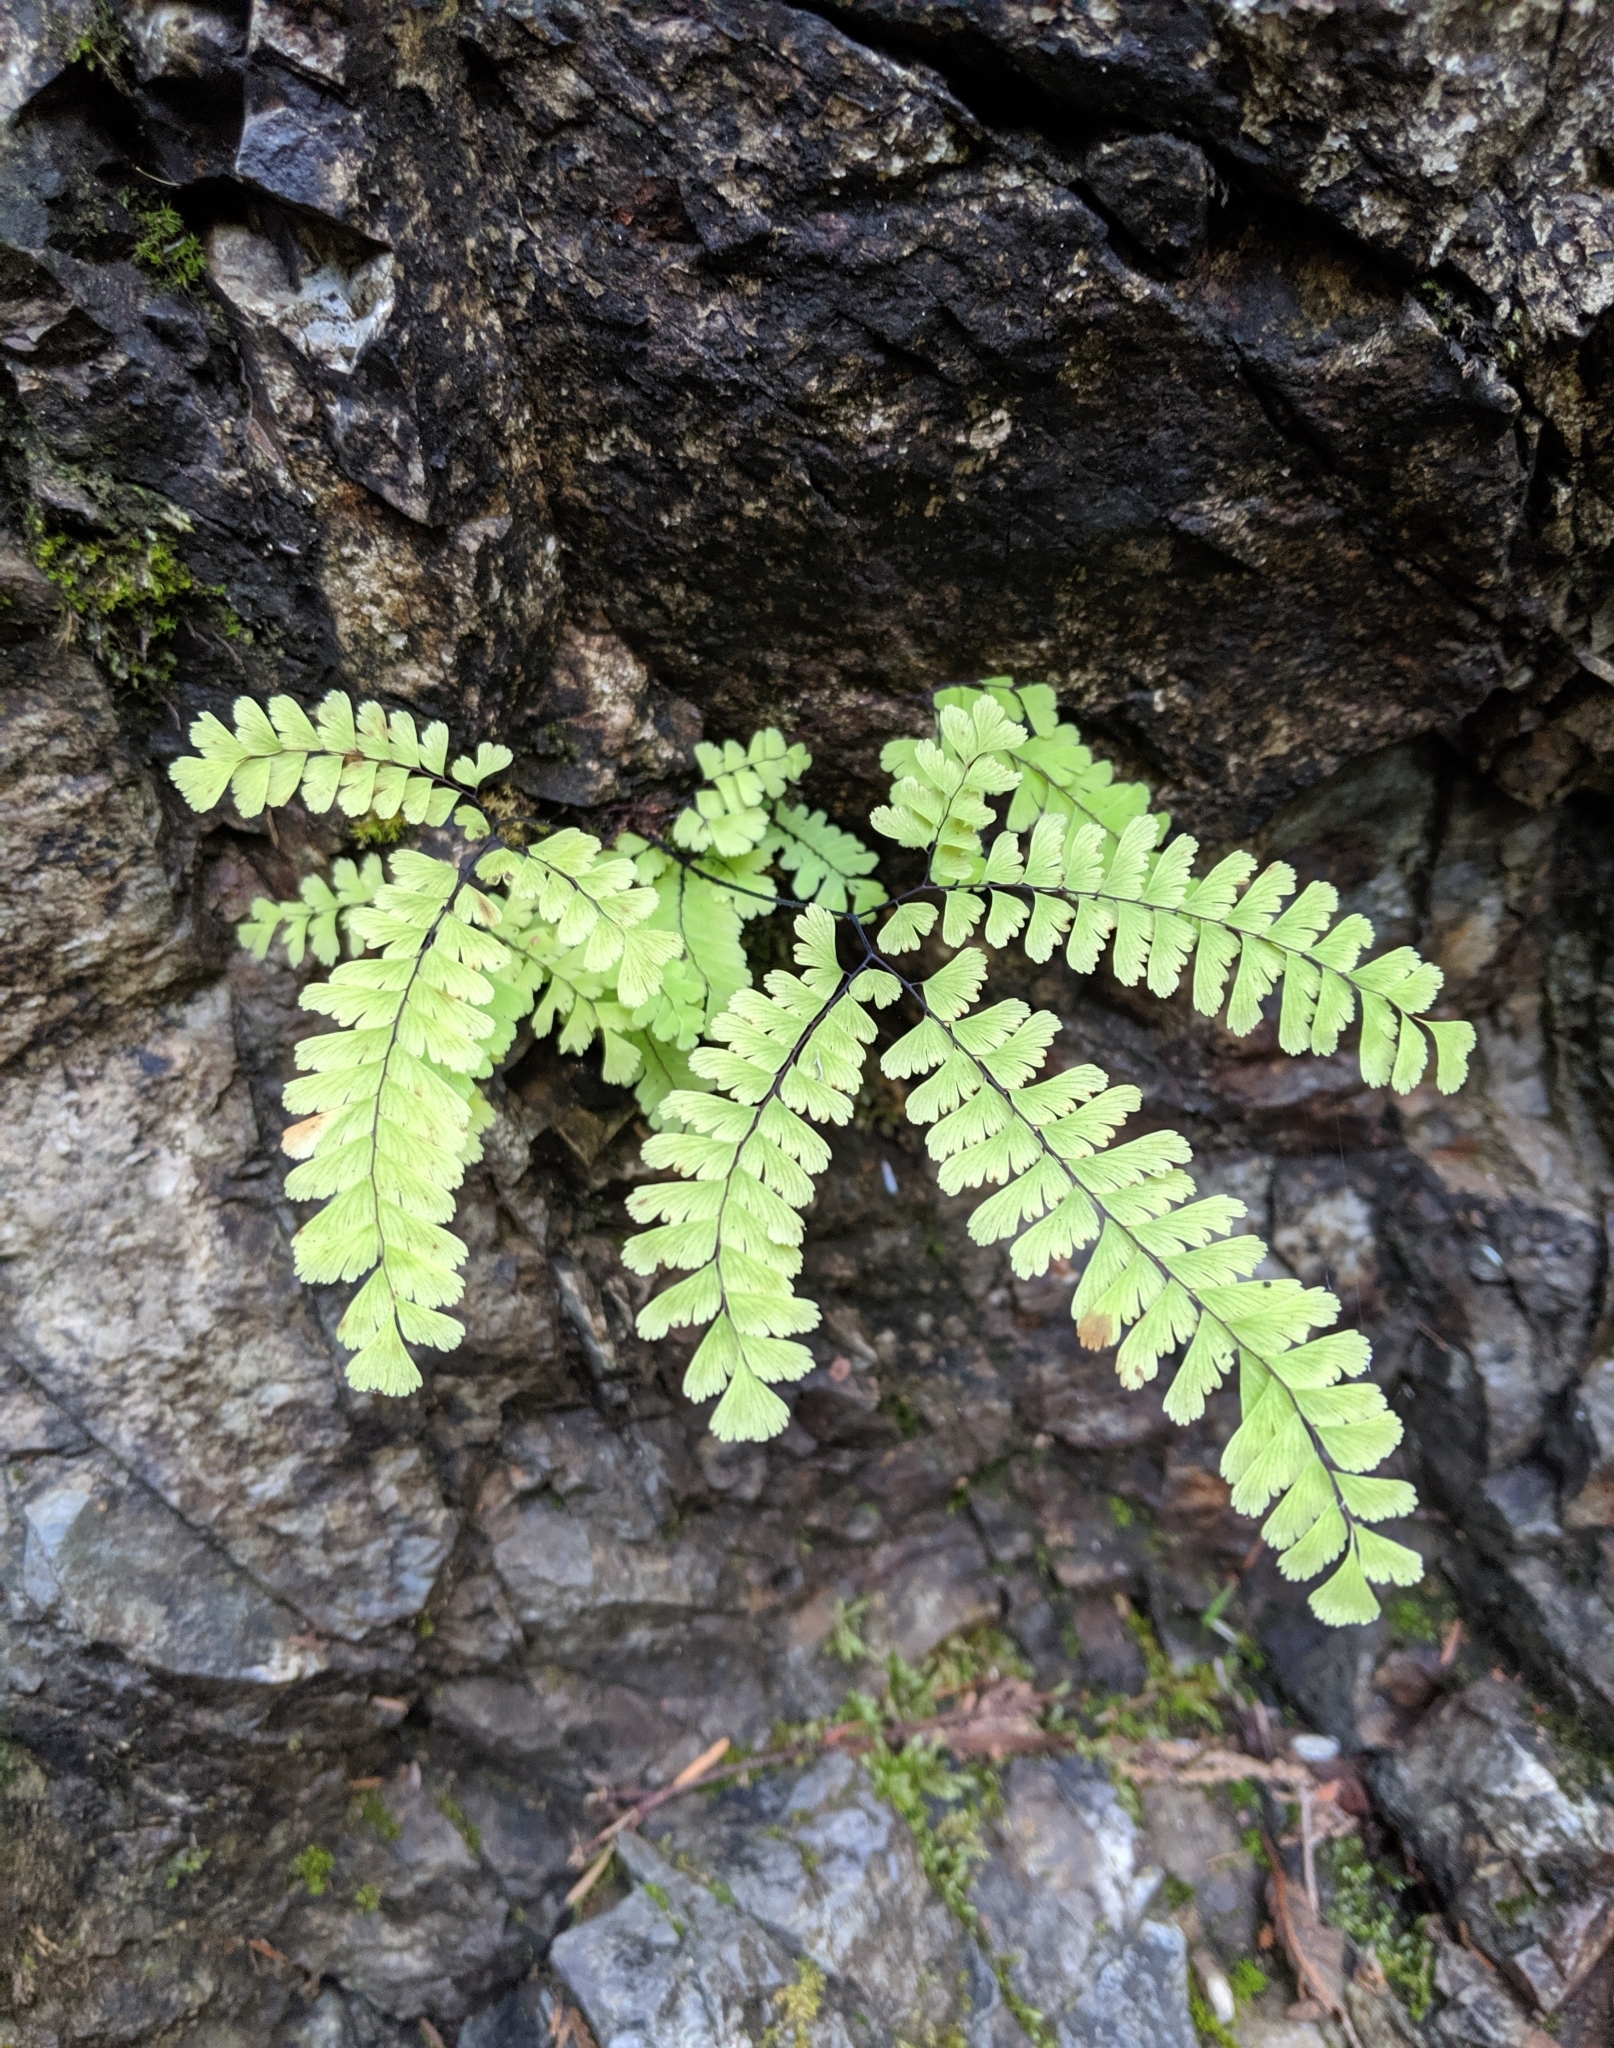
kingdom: Plantae
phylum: Tracheophyta
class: Polypodiopsida
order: Polypodiales
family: Pteridaceae
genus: Adiantum
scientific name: Adiantum aleuticum
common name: Aleutian maidenhair fern
